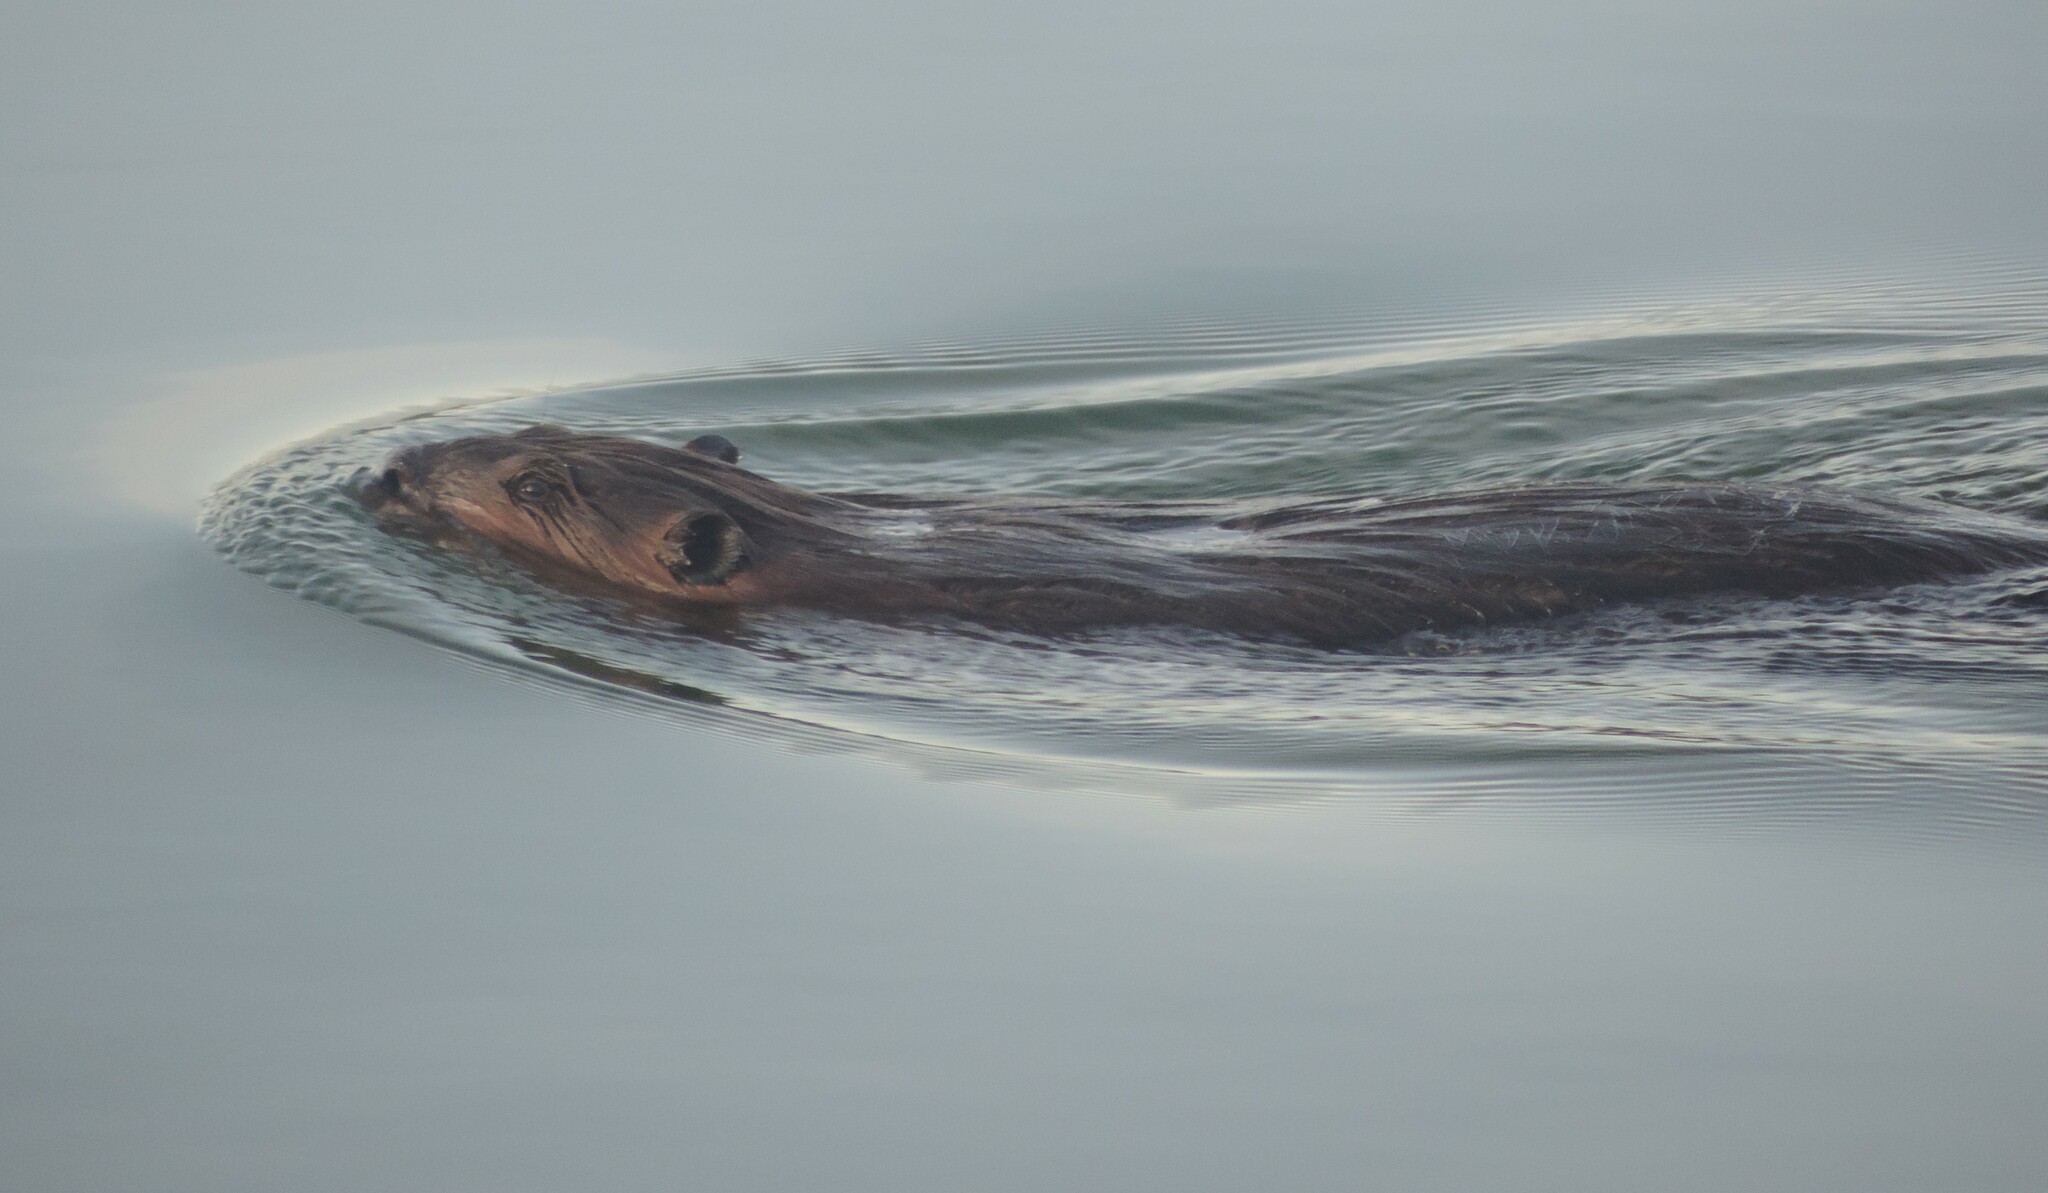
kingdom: Animalia
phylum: Chordata
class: Mammalia
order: Rodentia
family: Castoridae
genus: Castor
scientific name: Castor canadensis
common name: American beaver
